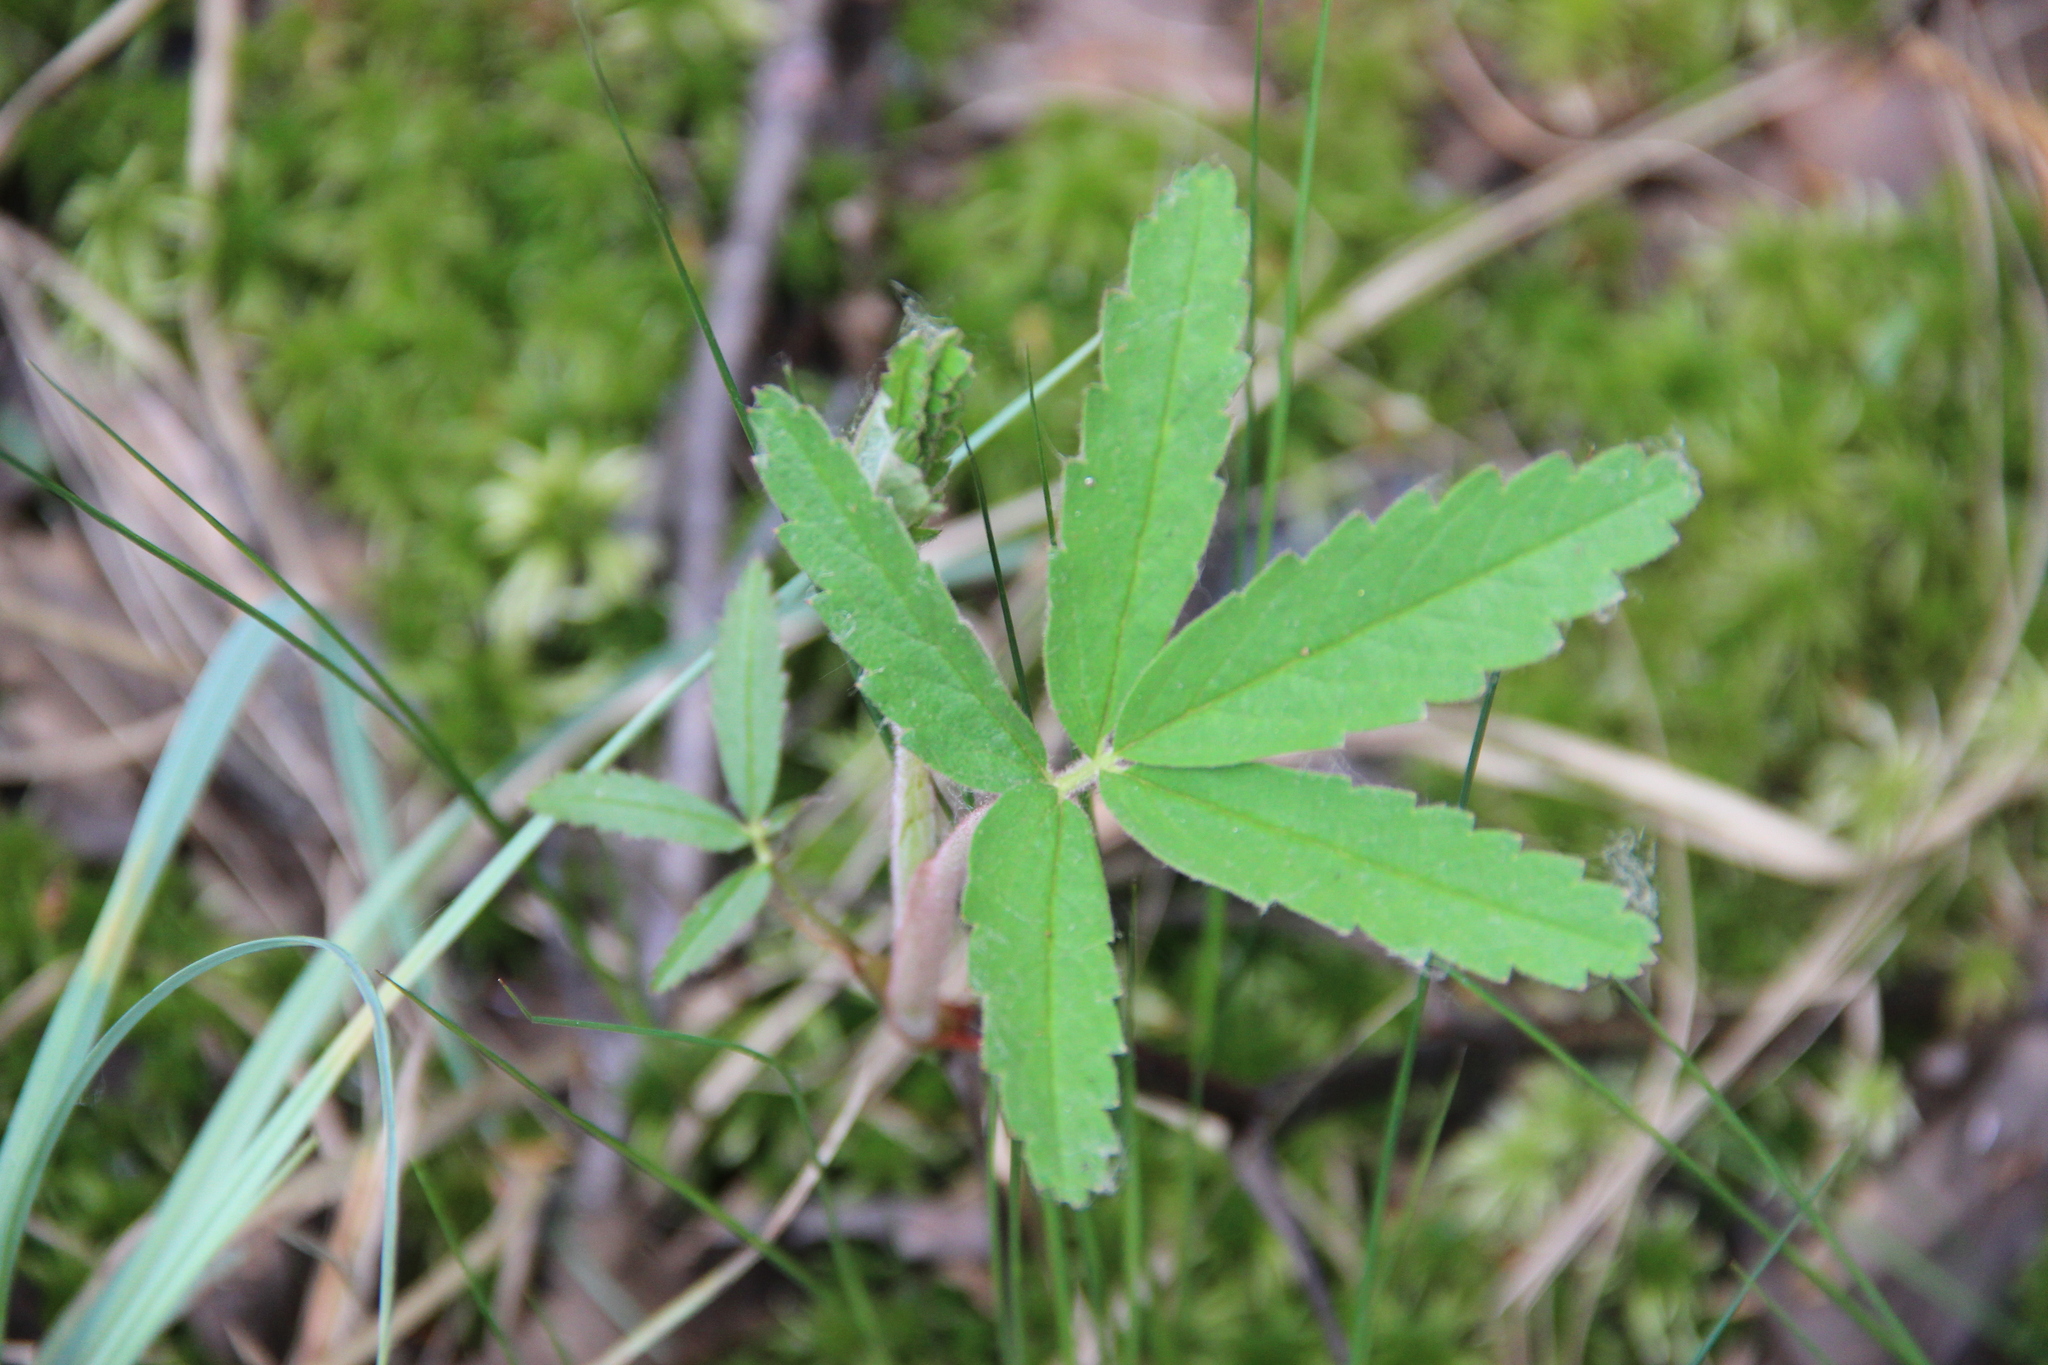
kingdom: Plantae
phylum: Tracheophyta
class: Magnoliopsida
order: Rosales
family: Rosaceae
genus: Comarum
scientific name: Comarum palustre
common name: Marsh cinquefoil
